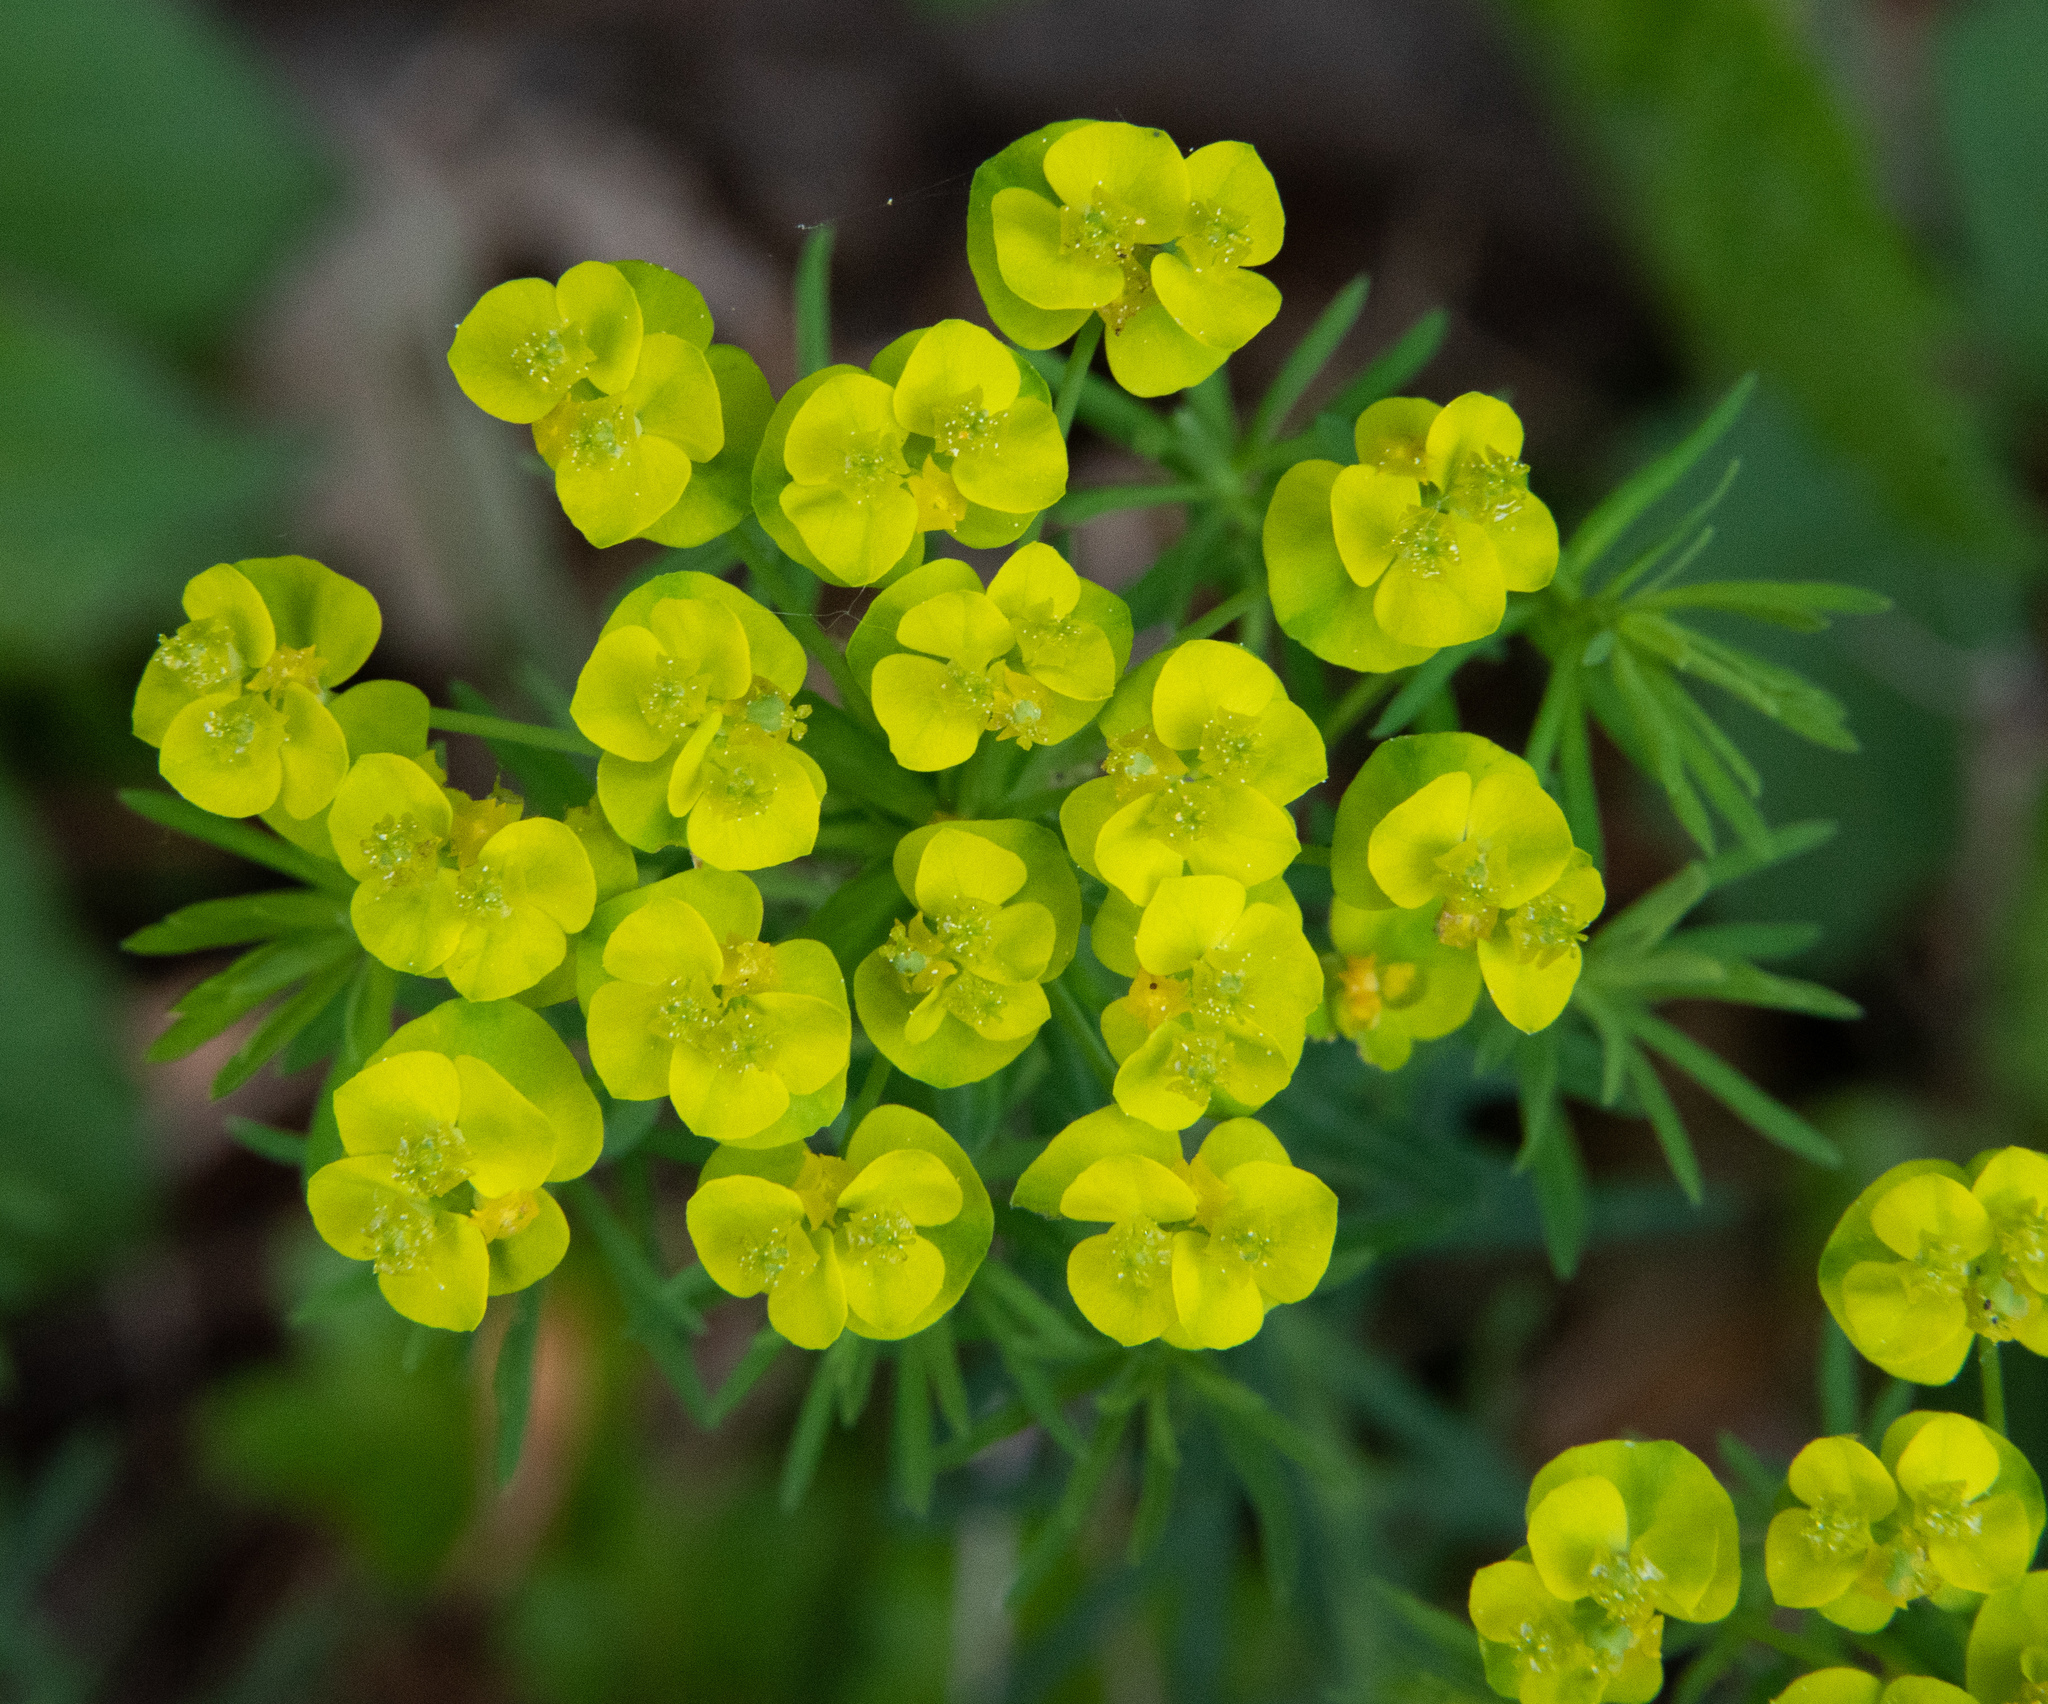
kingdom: Plantae
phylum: Tracheophyta
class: Magnoliopsida
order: Malpighiales
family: Euphorbiaceae
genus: Euphorbia
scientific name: Euphorbia cyparissias
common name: Cypress spurge
